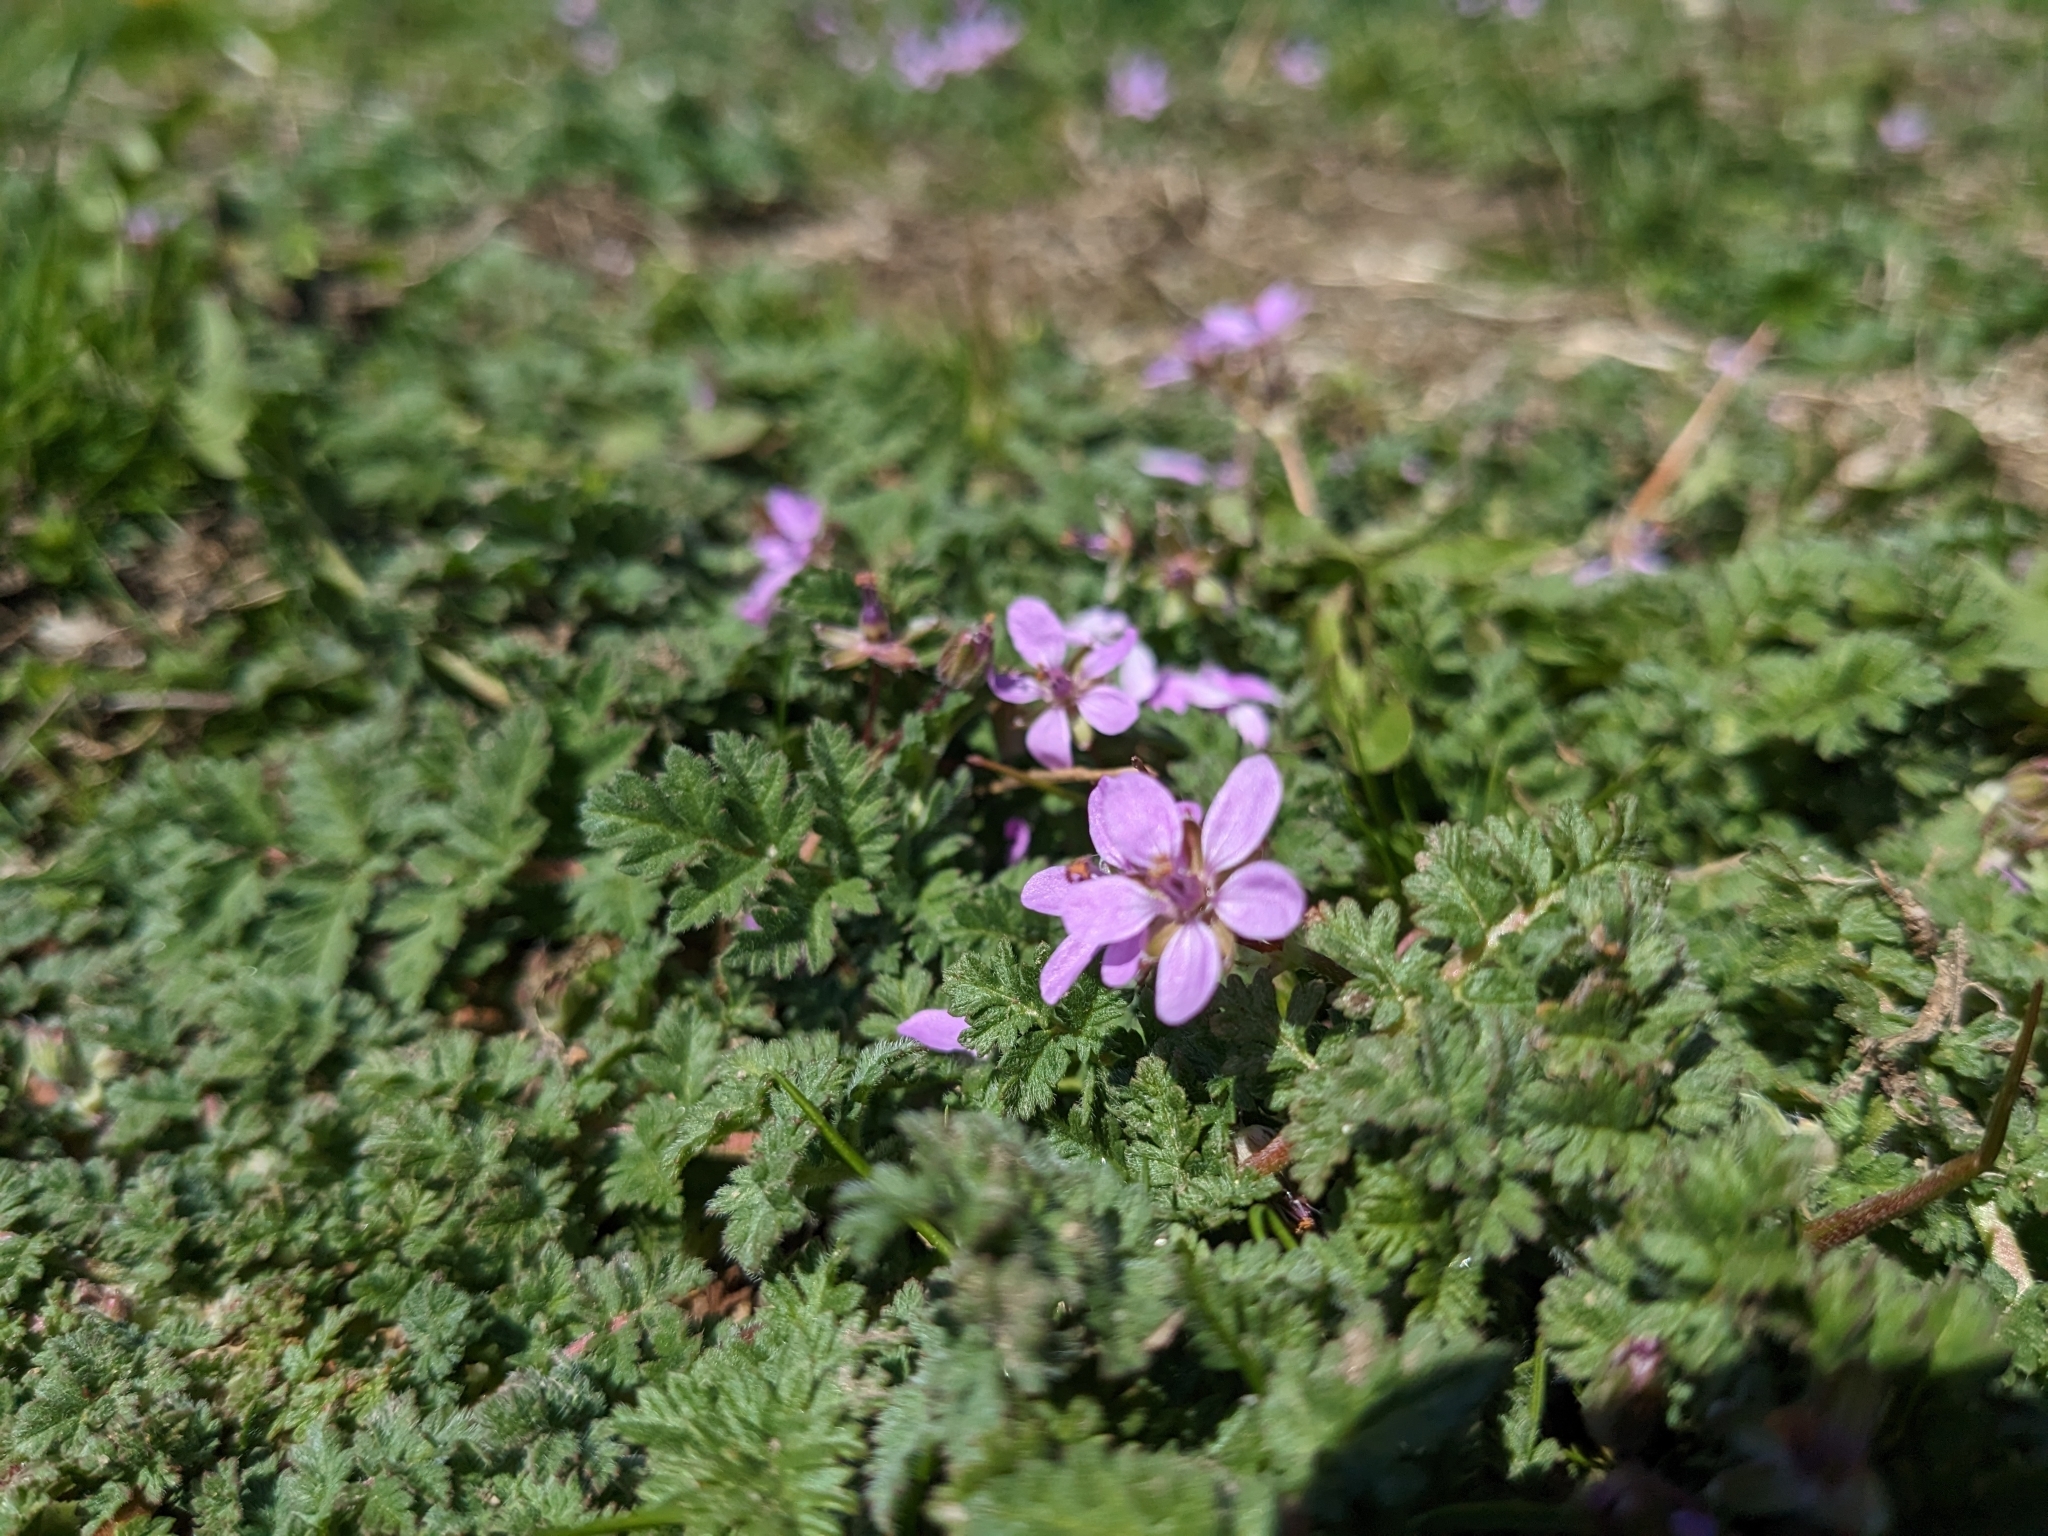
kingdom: Plantae
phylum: Tracheophyta
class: Magnoliopsida
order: Geraniales
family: Geraniaceae
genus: Erodium
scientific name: Erodium cicutarium
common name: Common stork's-bill
